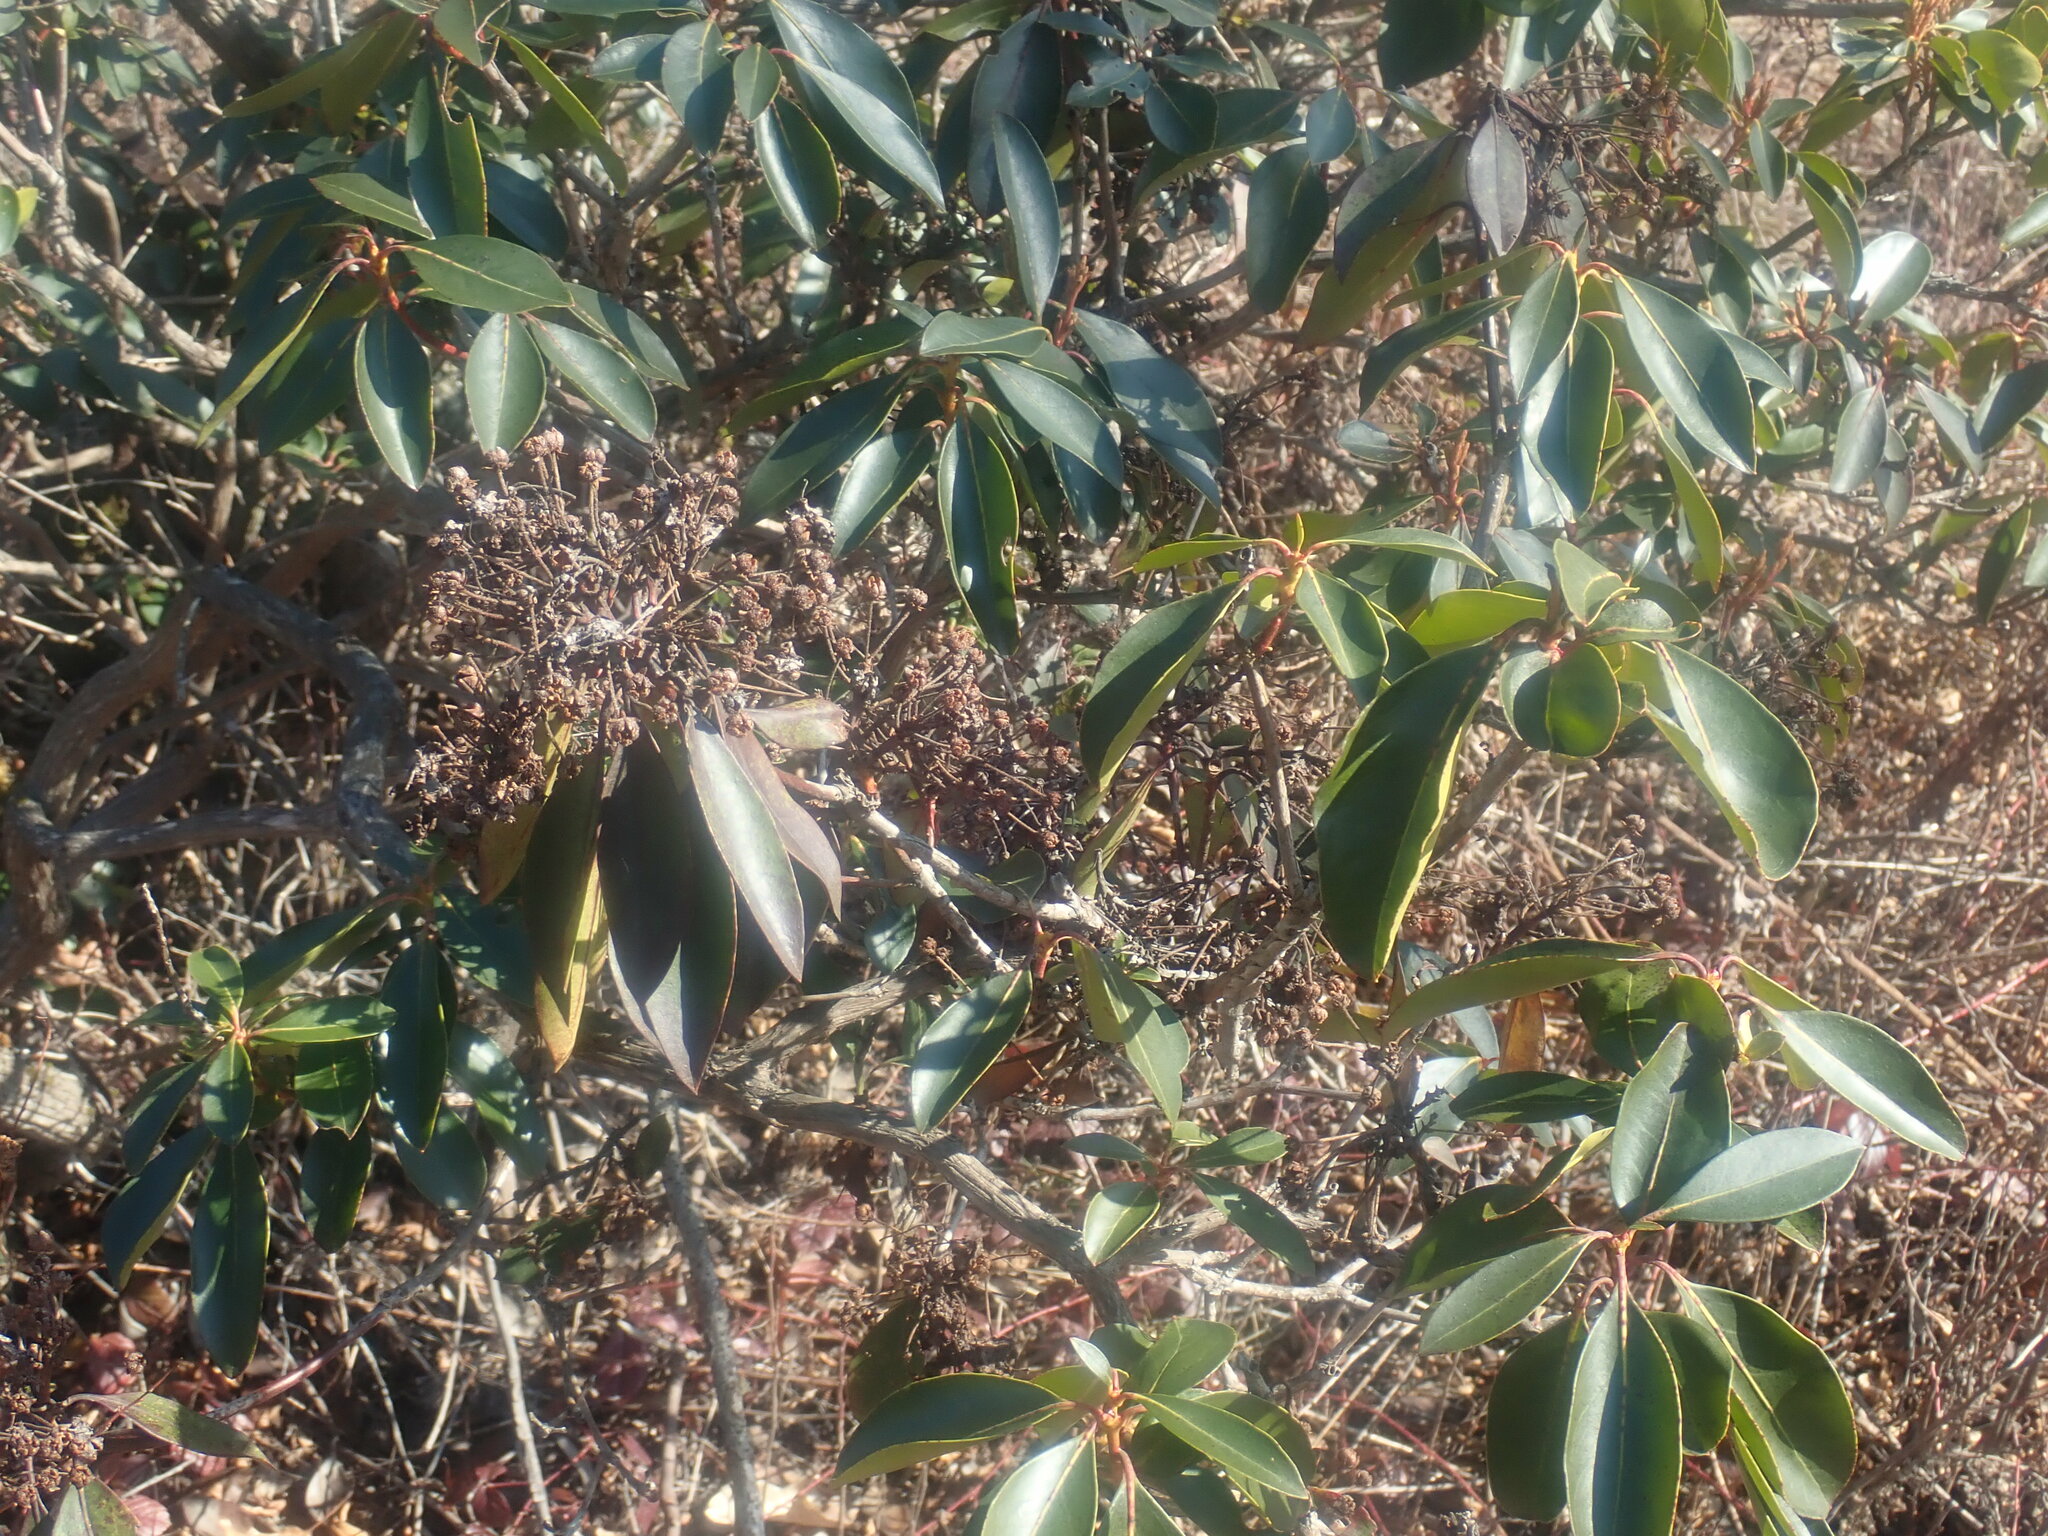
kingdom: Plantae
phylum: Tracheophyta
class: Magnoliopsida
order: Ericales
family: Ericaceae
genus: Kalmia
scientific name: Kalmia latifolia
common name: Mountain-laurel
